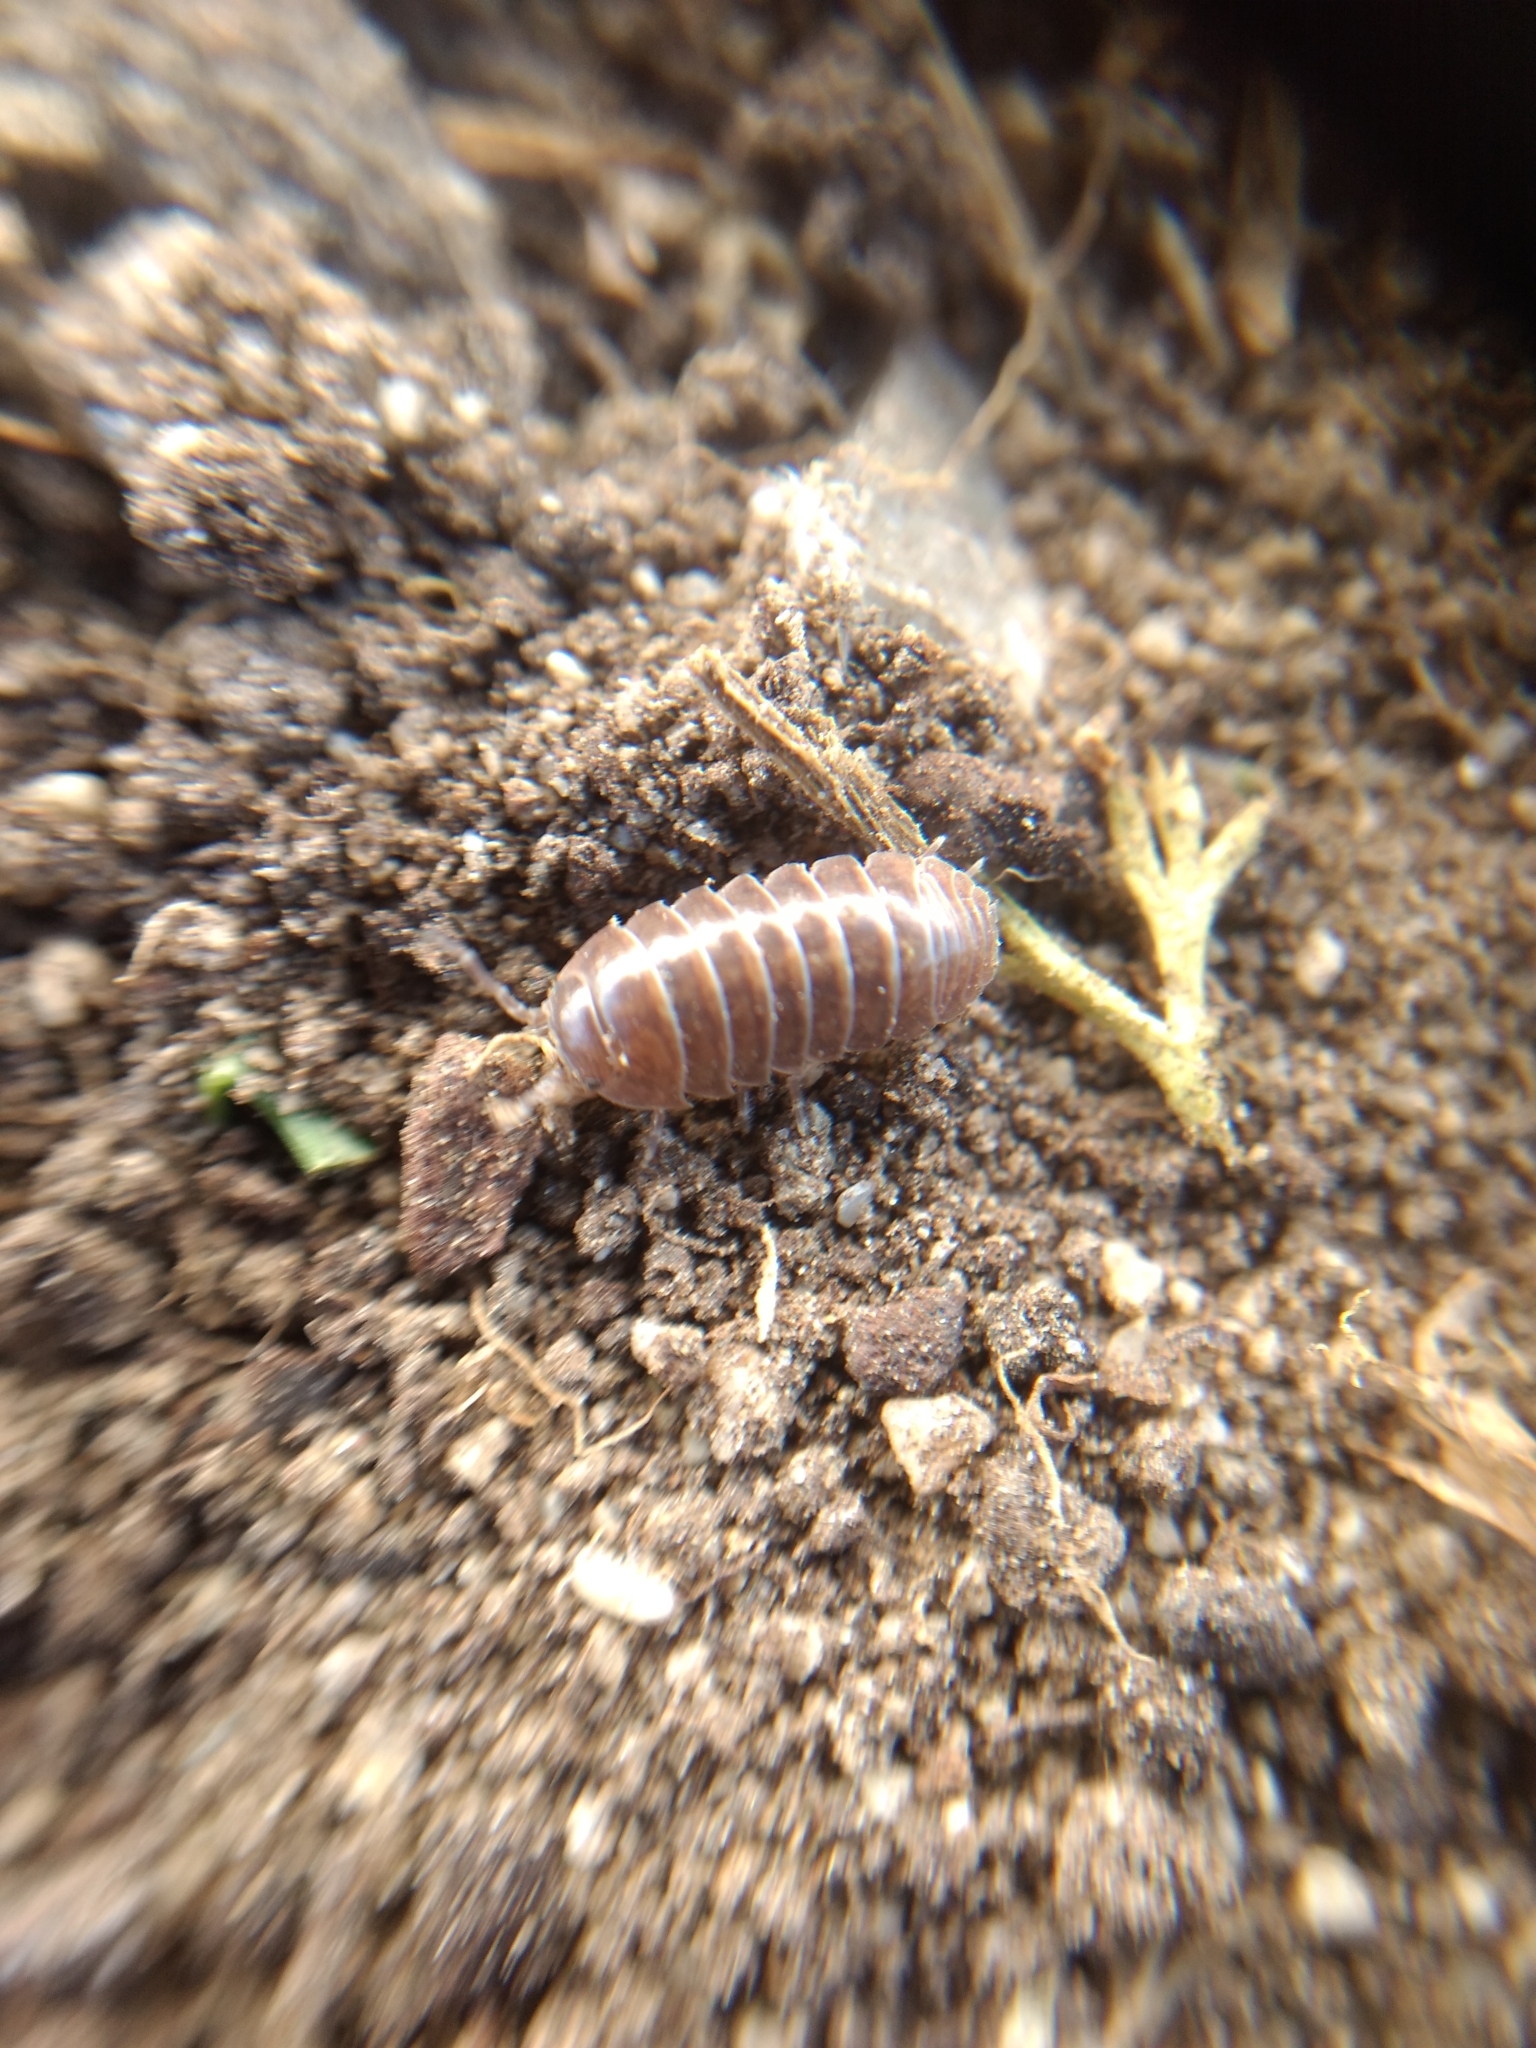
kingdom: Animalia
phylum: Arthropoda
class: Malacostraca
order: Isopoda
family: Armadillidiidae
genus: Armadillidium
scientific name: Armadillidium vulgare
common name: Common pill woodlouse
